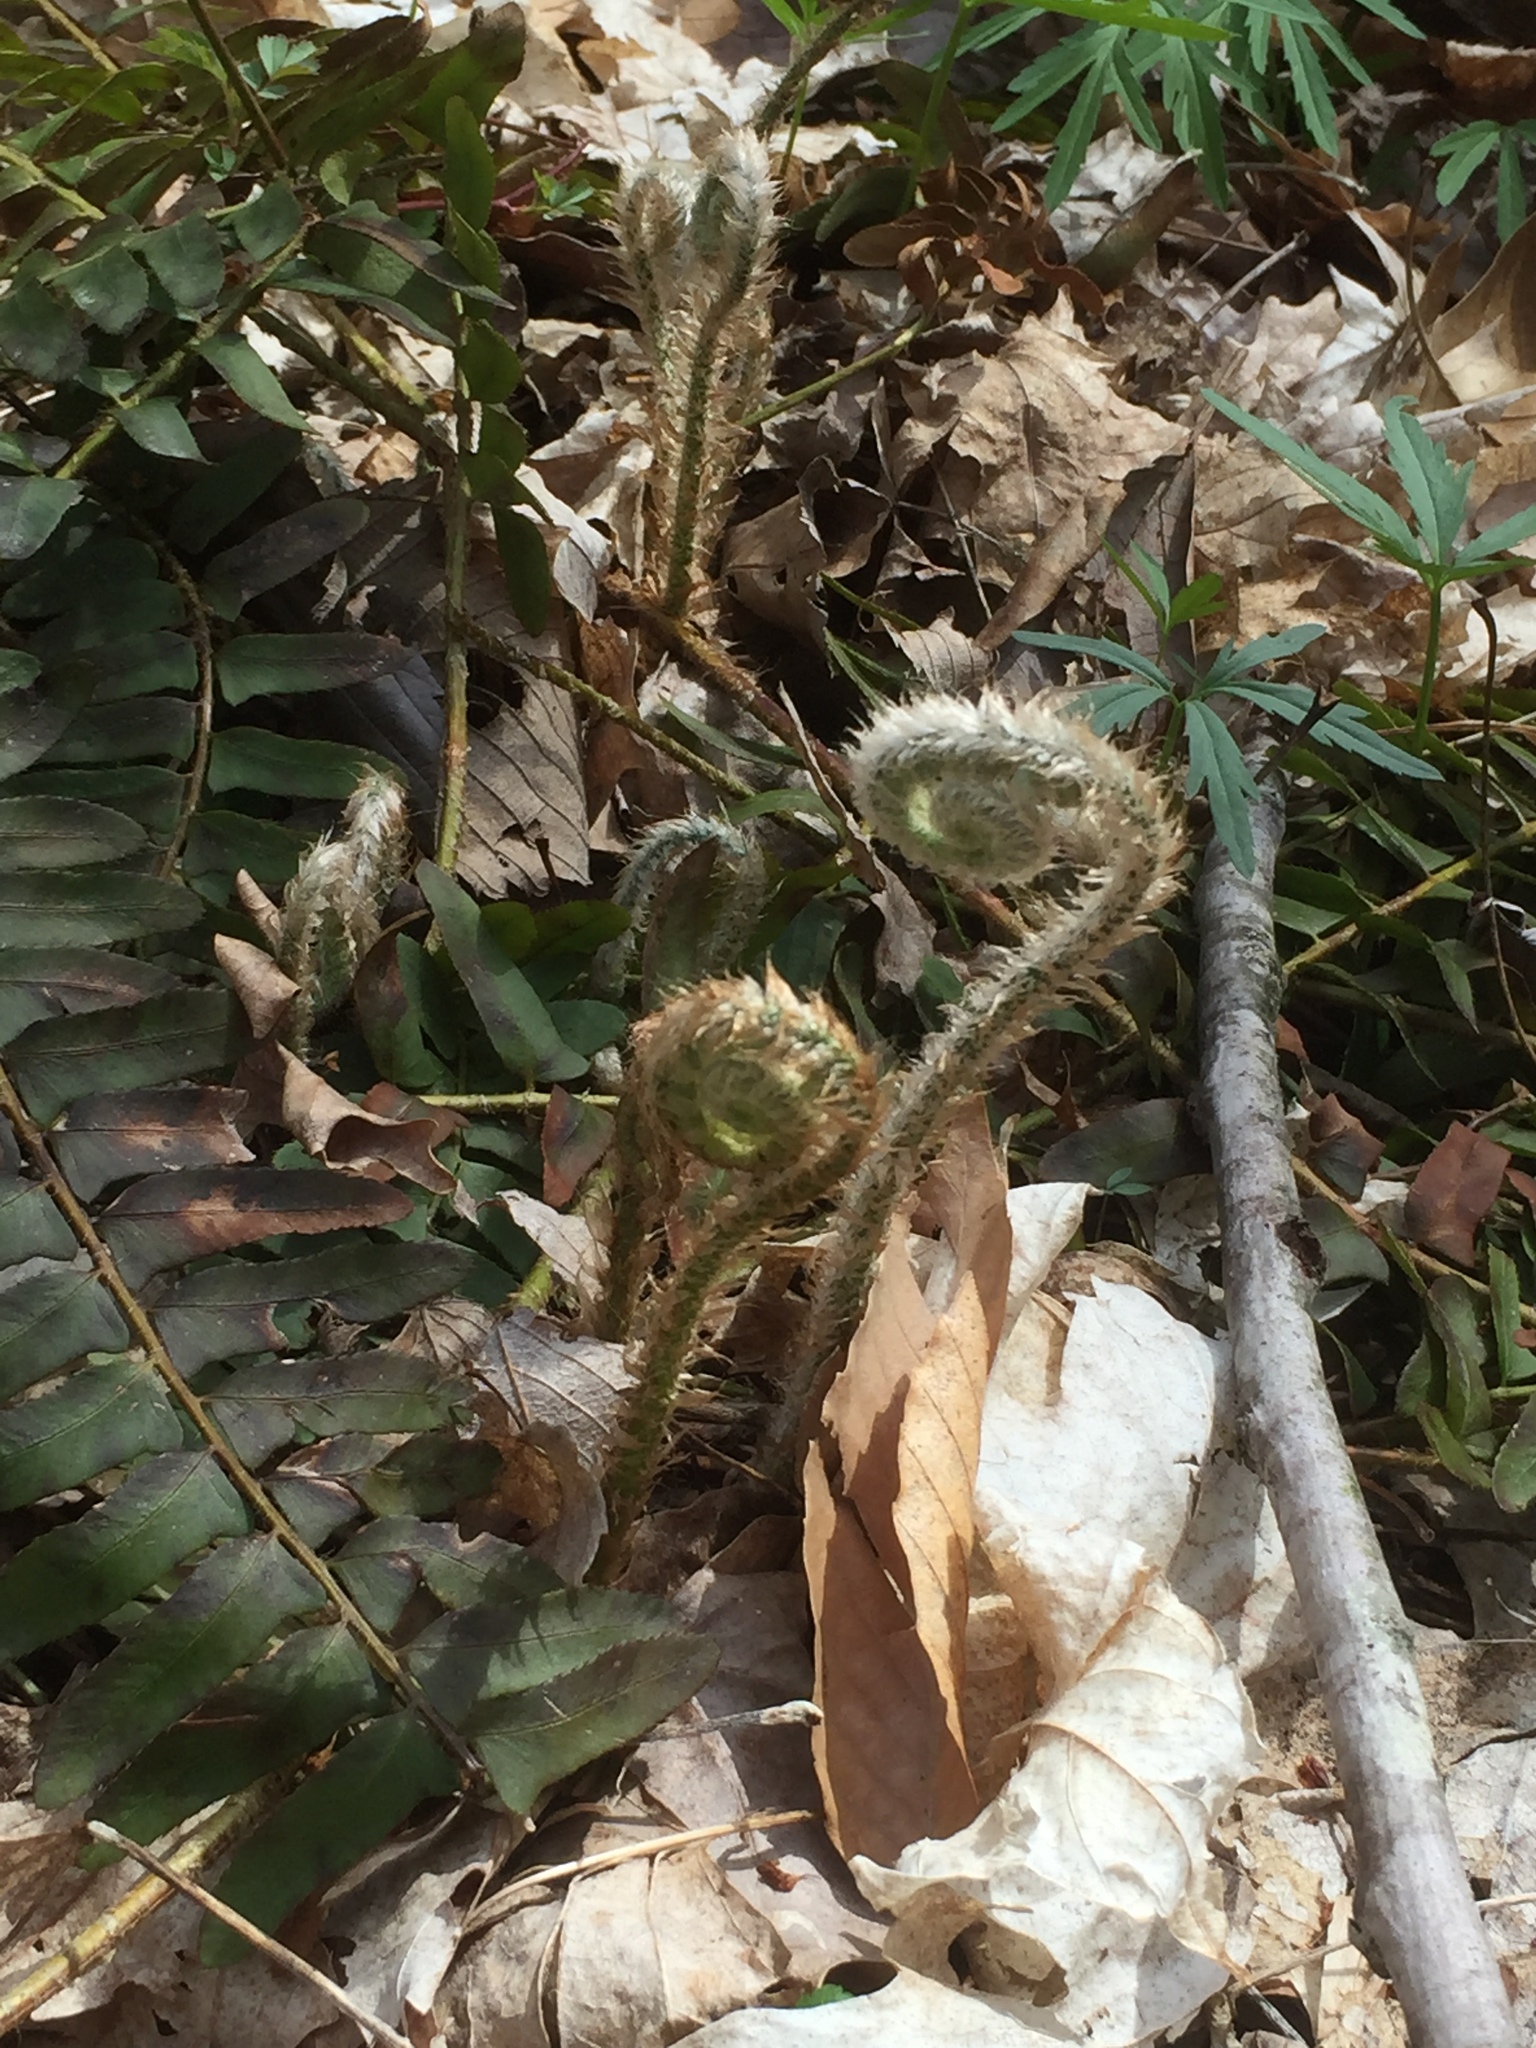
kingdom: Plantae
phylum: Tracheophyta
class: Polypodiopsida
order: Polypodiales
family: Dryopteridaceae
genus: Polystichum
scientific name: Polystichum acrostichoides
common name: Christmas fern
